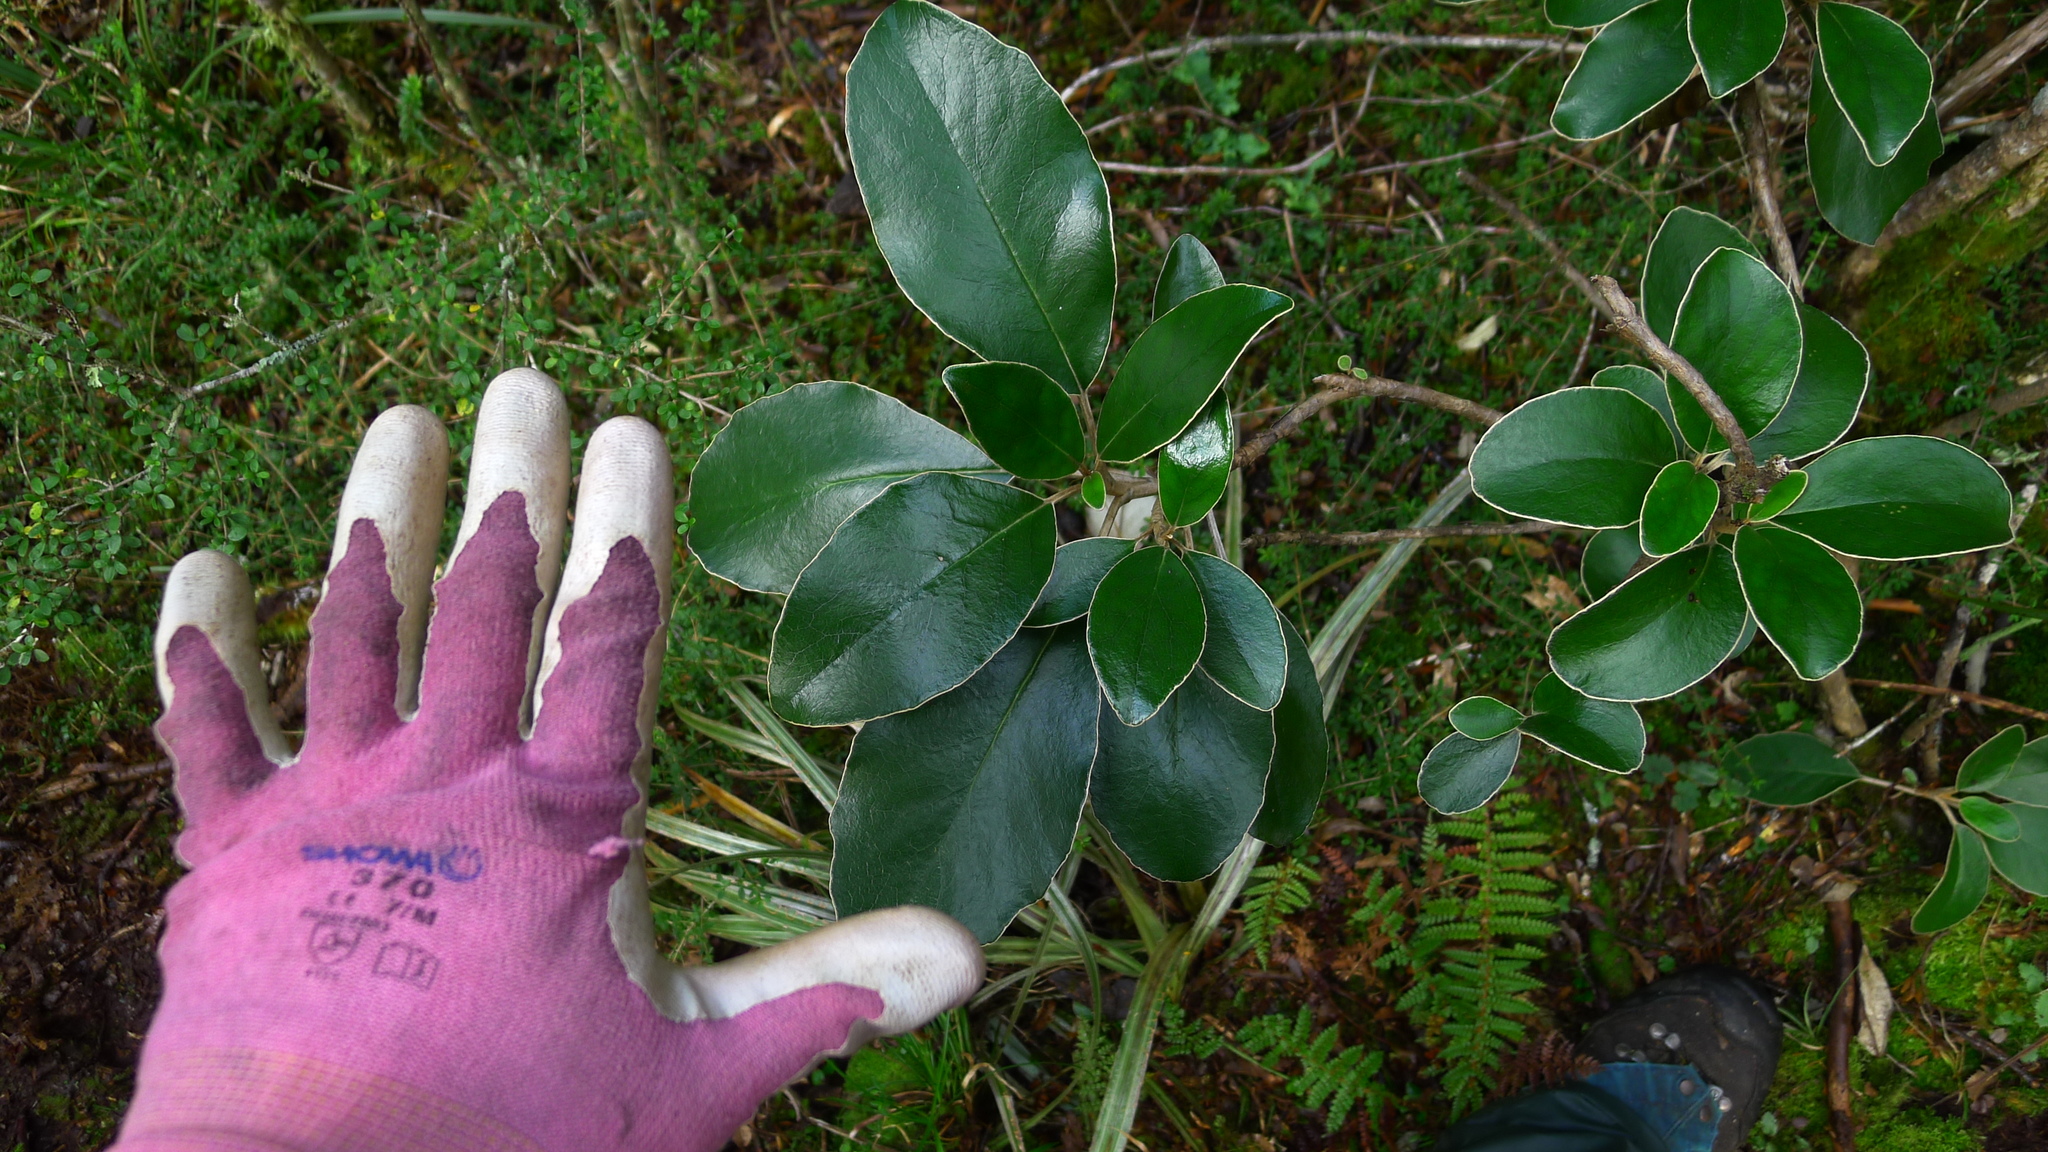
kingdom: Plantae
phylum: Tracheophyta
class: Magnoliopsida
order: Asterales
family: Asteraceae
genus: Brachyglottis
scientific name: Brachyglottis buchananii
